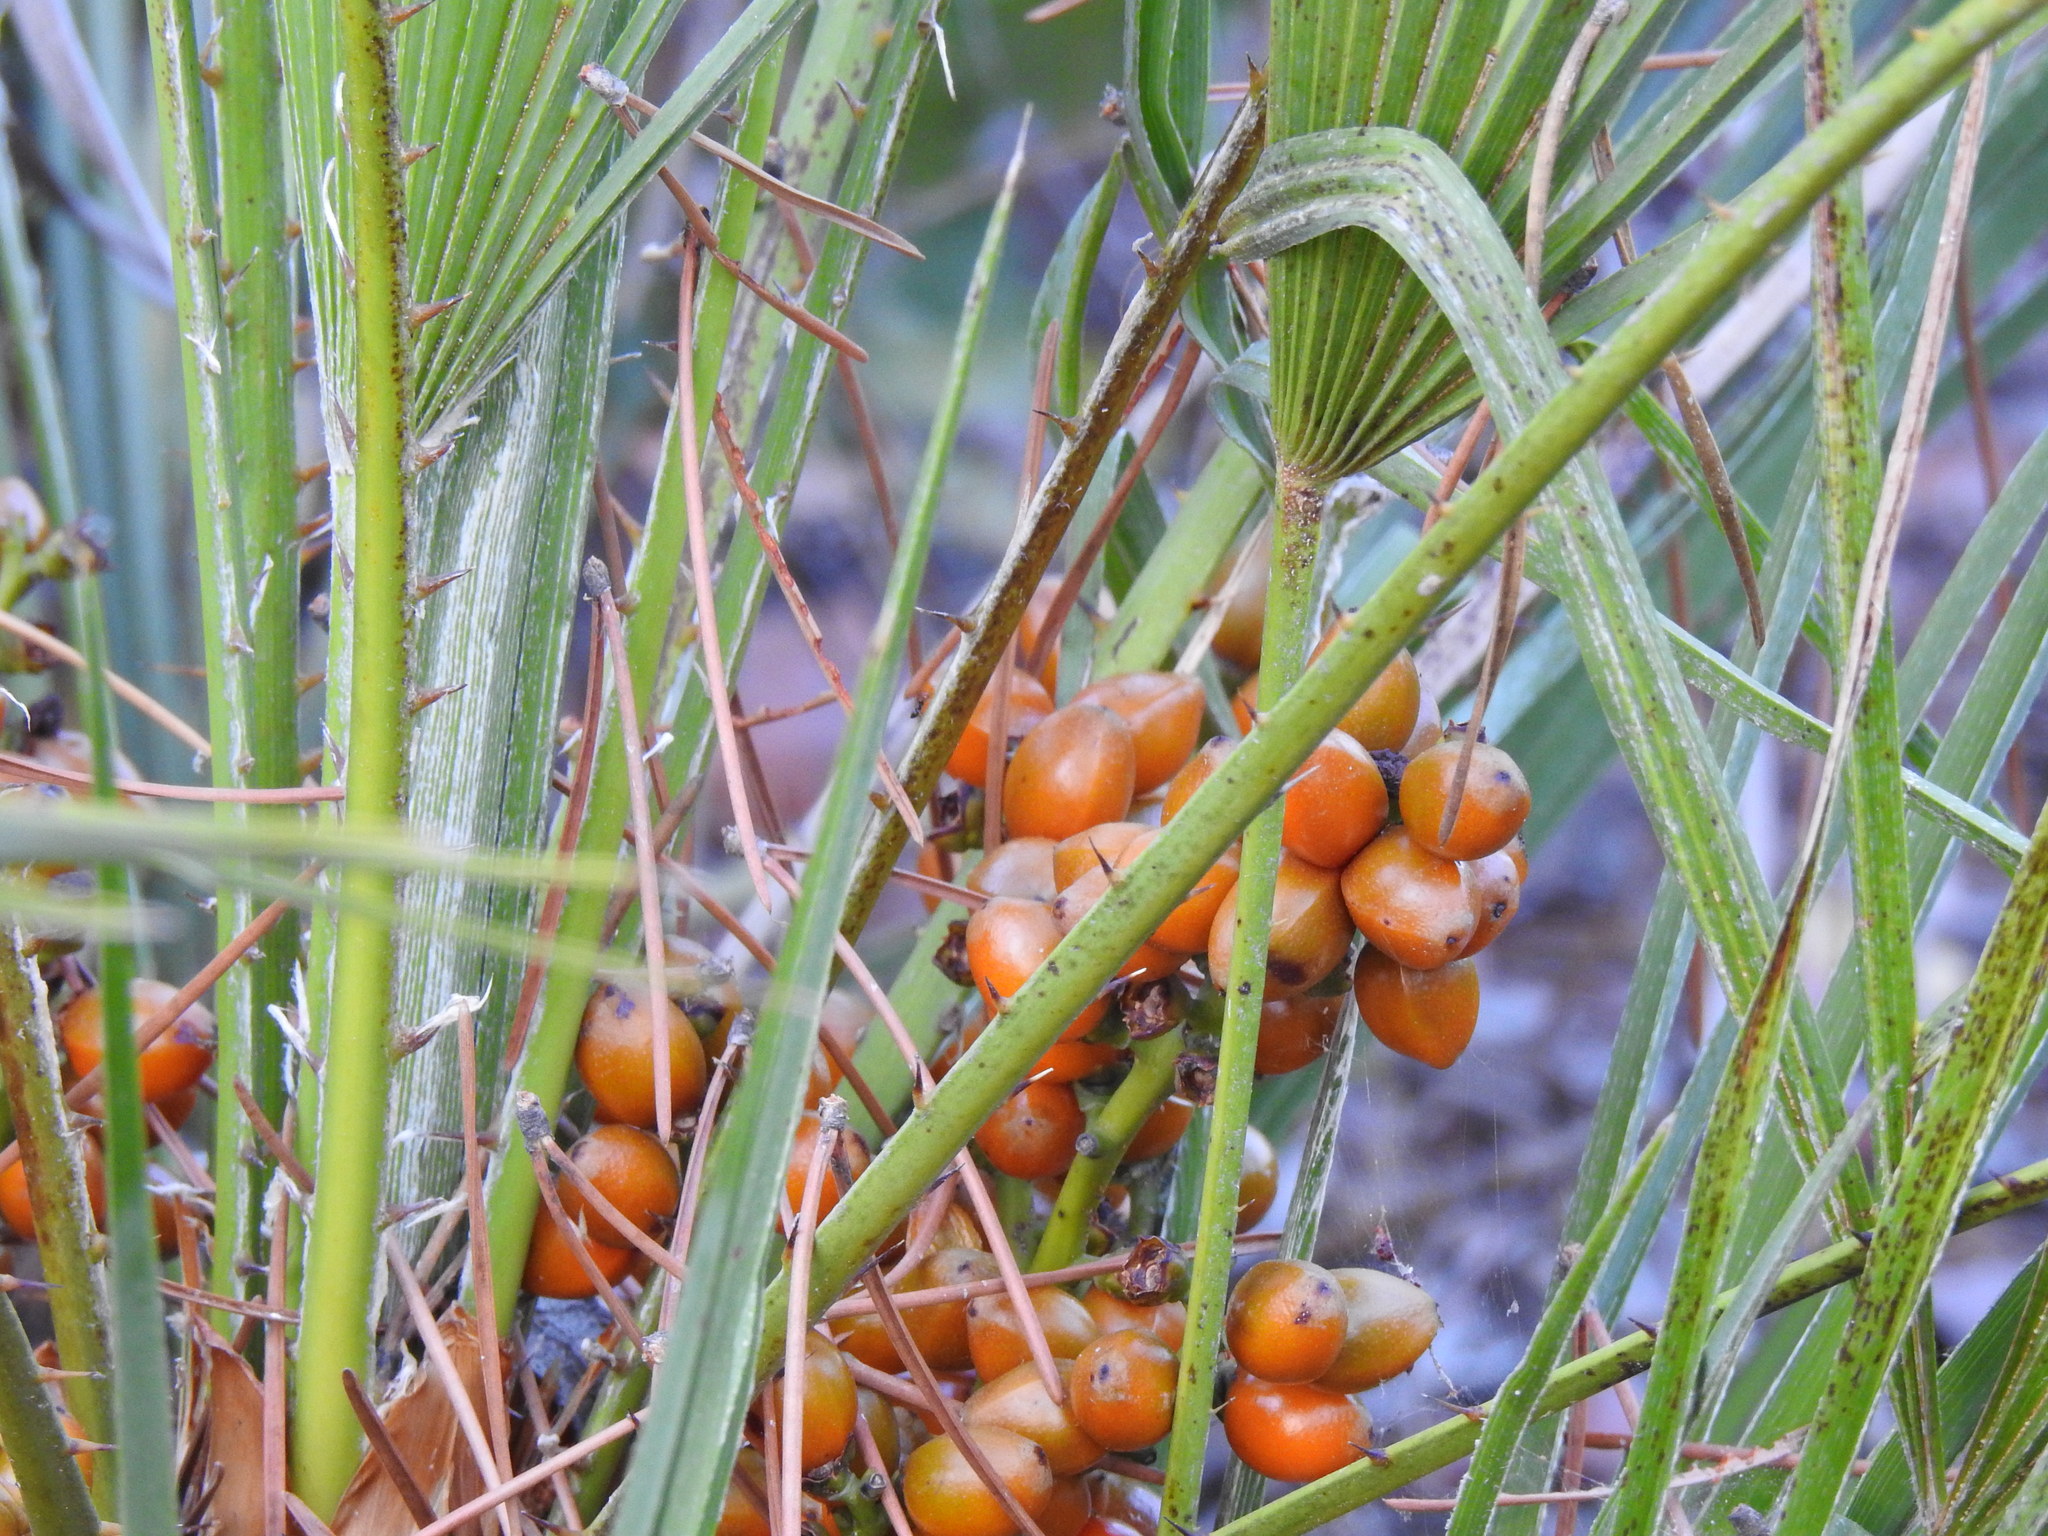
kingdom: Plantae
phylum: Tracheophyta
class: Liliopsida
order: Arecales
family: Arecaceae
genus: Chamaerops
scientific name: Chamaerops humilis
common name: Dwarf fan palm
